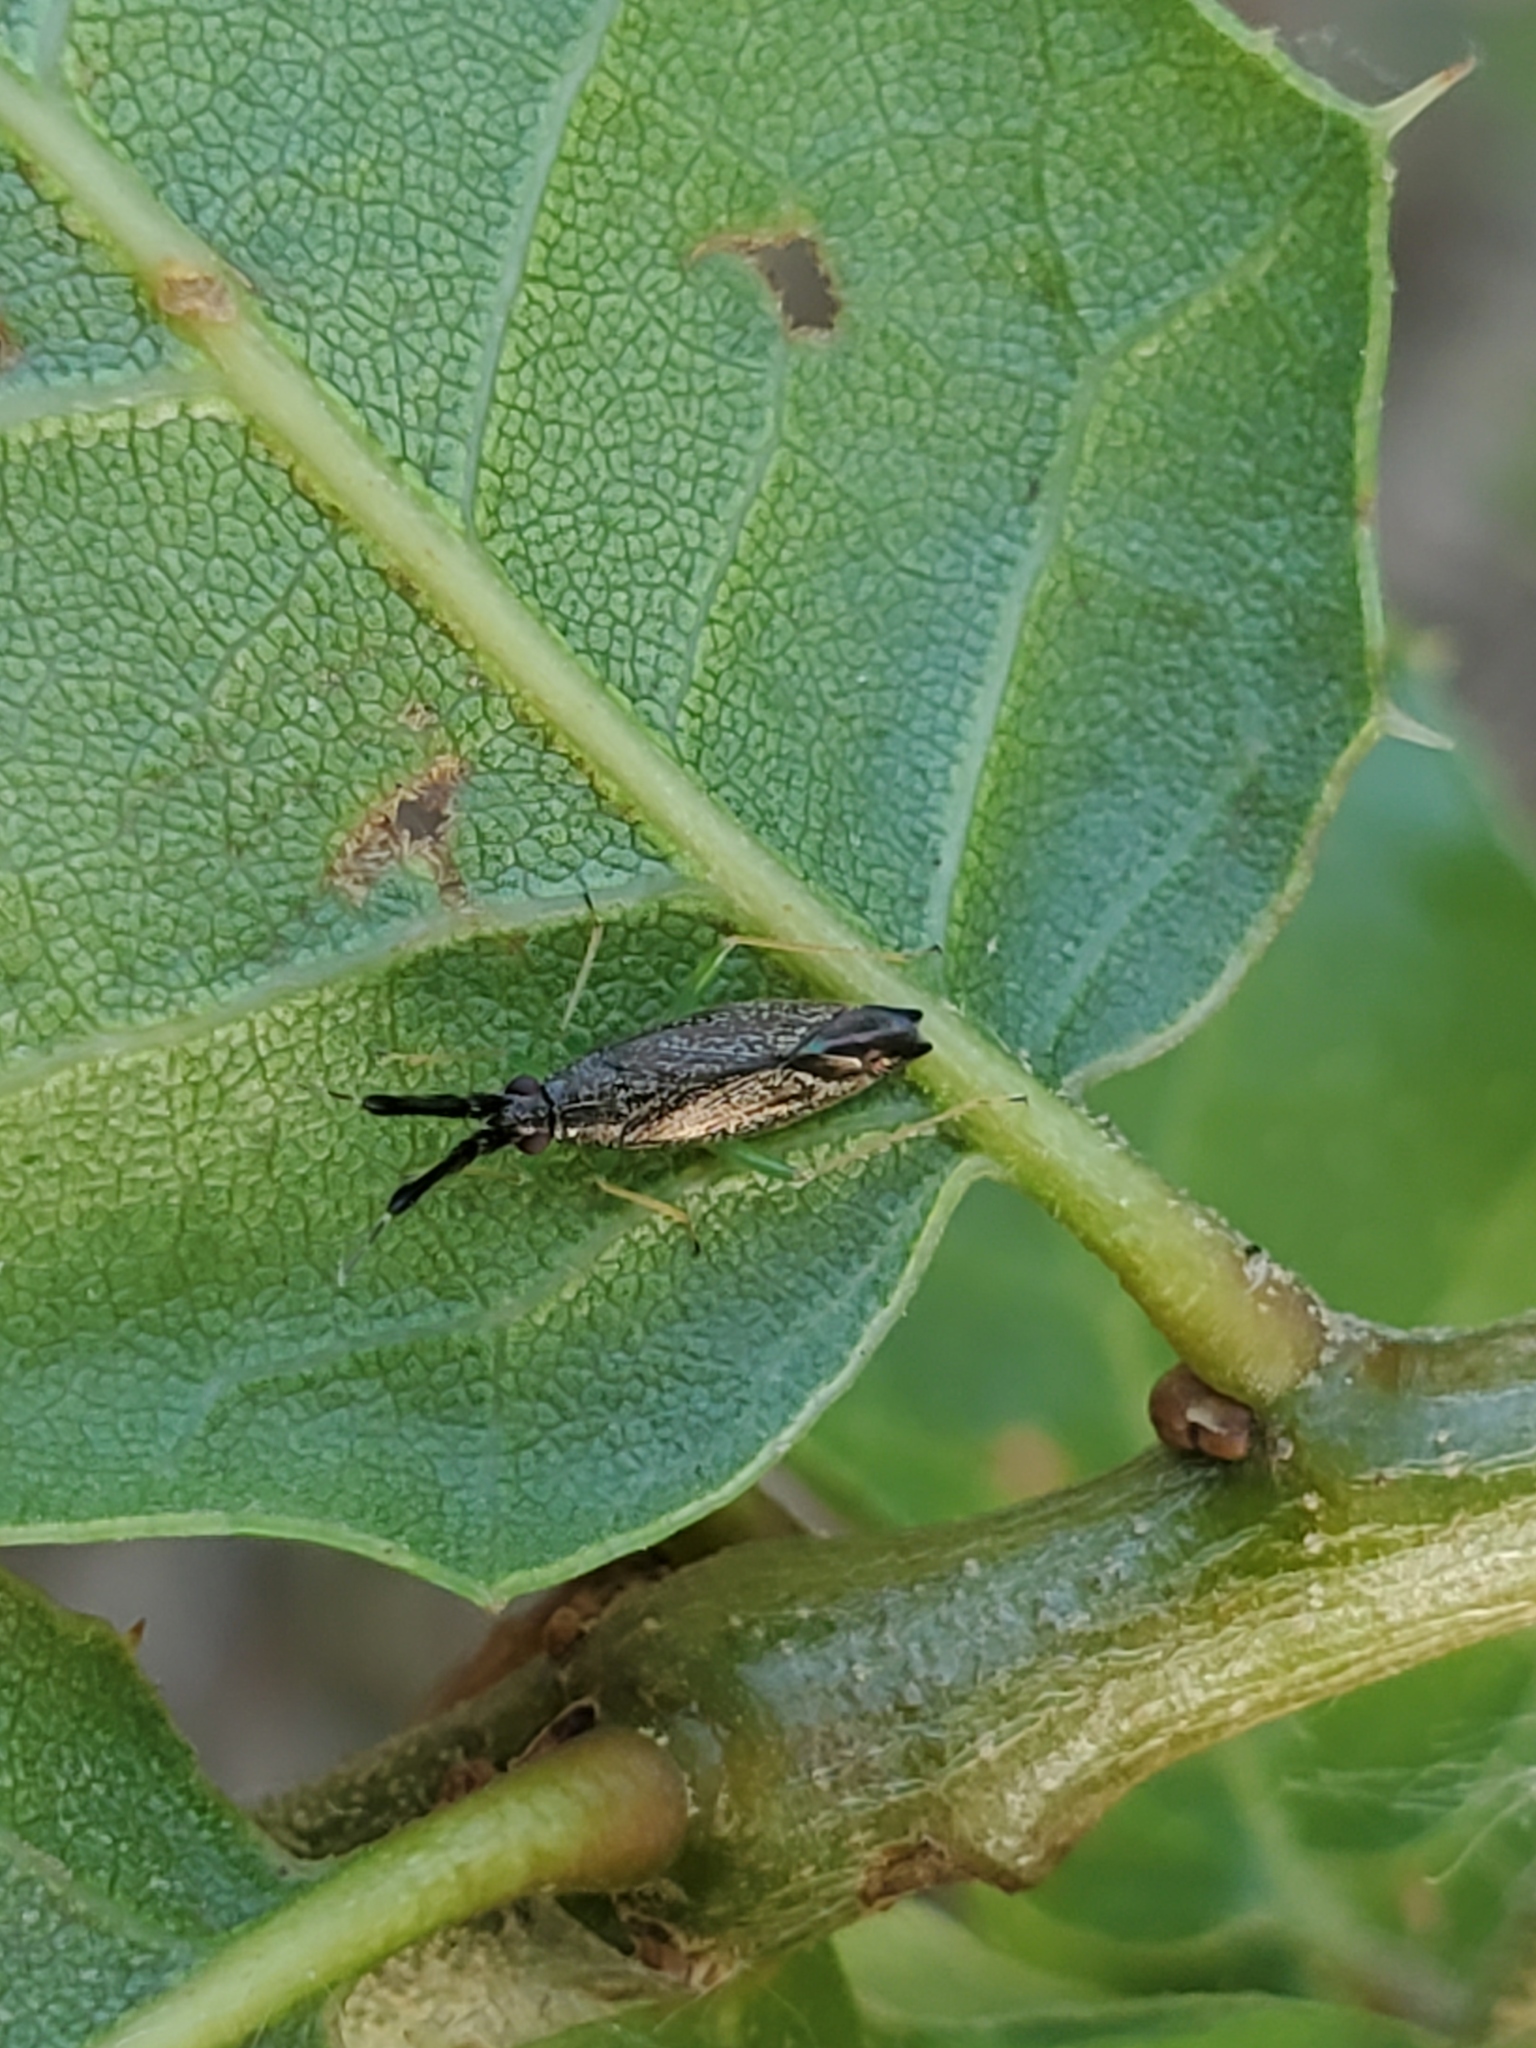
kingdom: Animalia
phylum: Arthropoda
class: Insecta
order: Hemiptera
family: Miridae
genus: Heterotoma
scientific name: Heterotoma planicornis
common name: Plant bug
